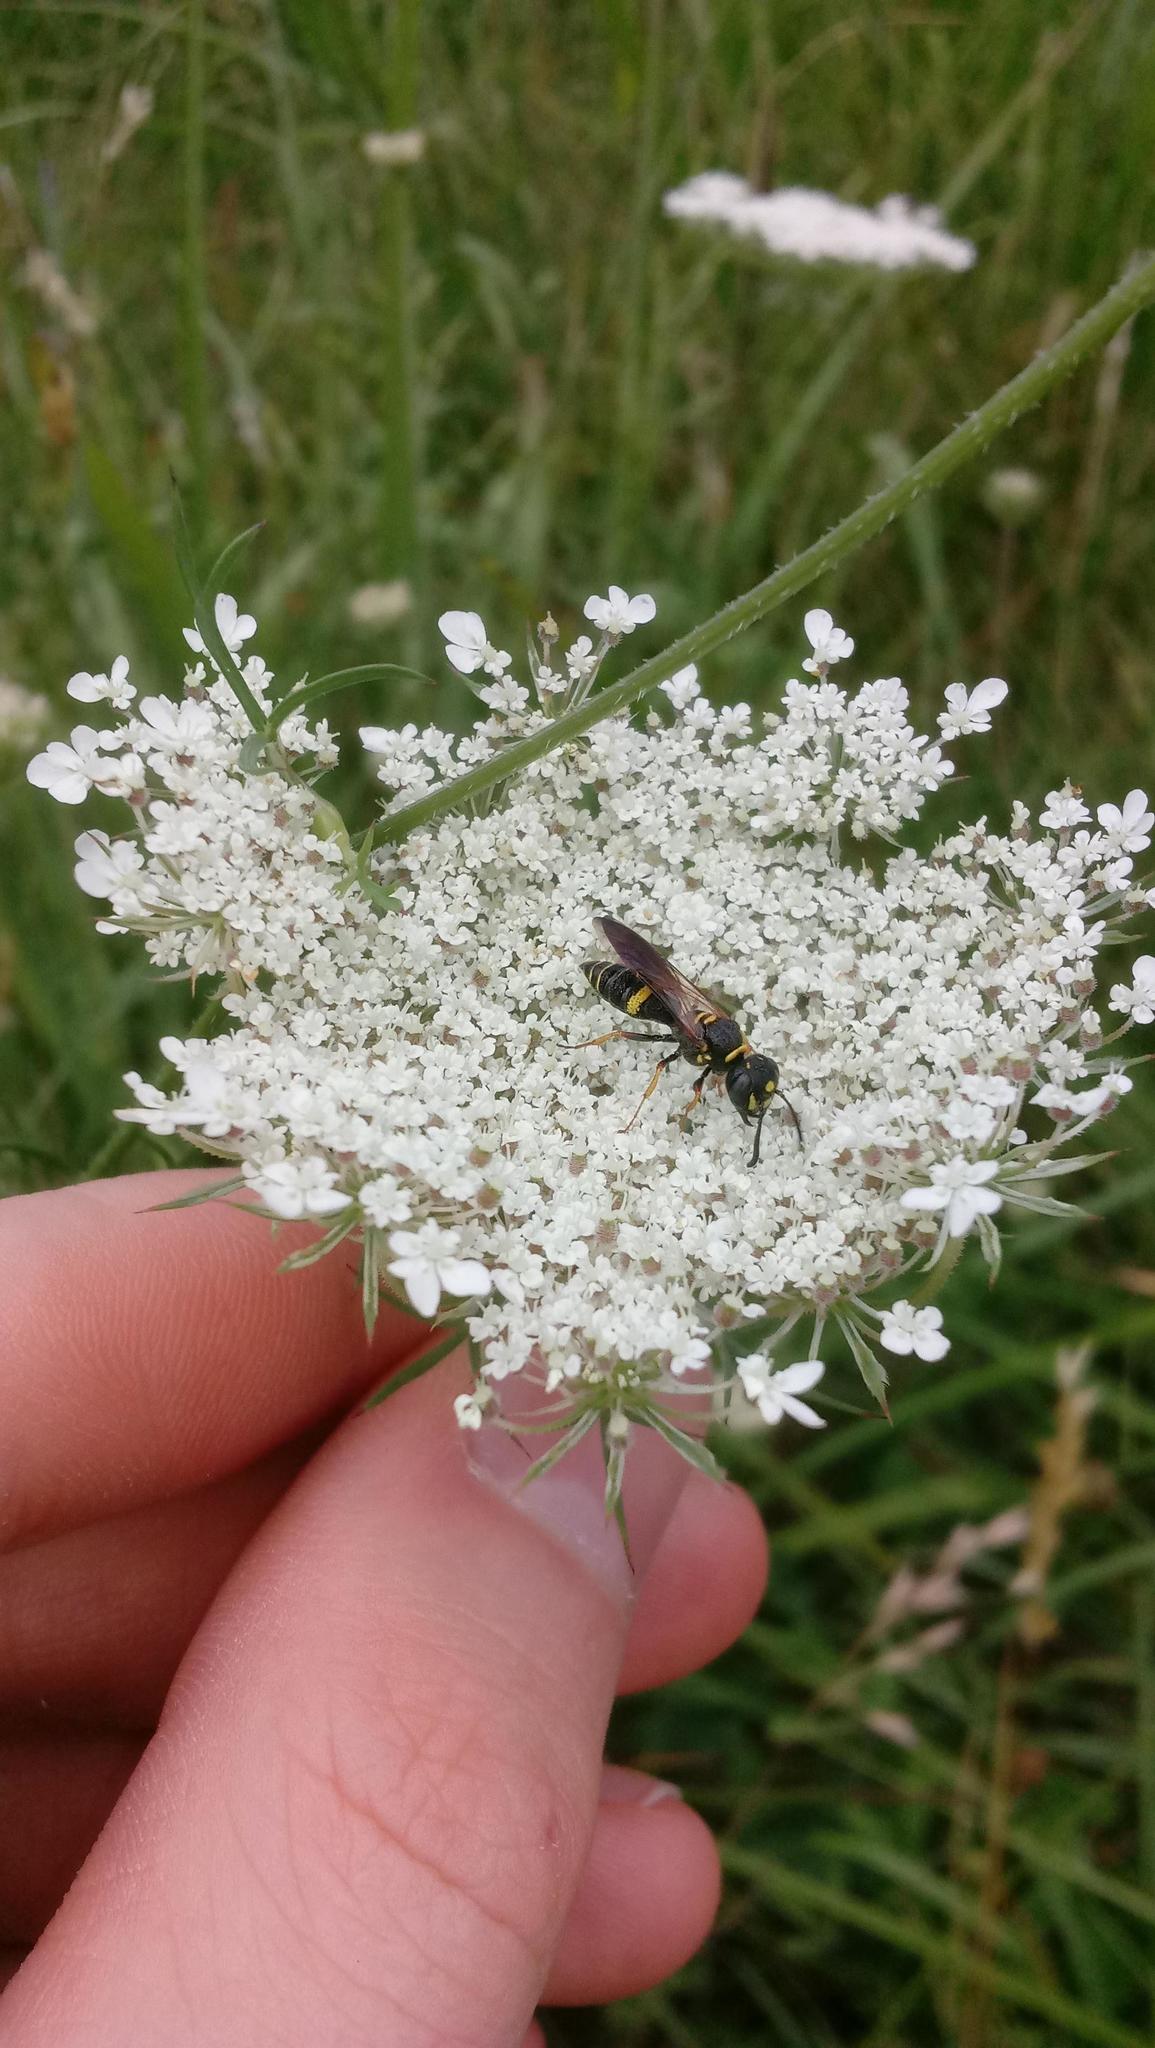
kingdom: Plantae
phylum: Tracheophyta
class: Magnoliopsida
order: Apiales
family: Apiaceae
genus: Daucus
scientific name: Daucus carota
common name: Wild carrot
